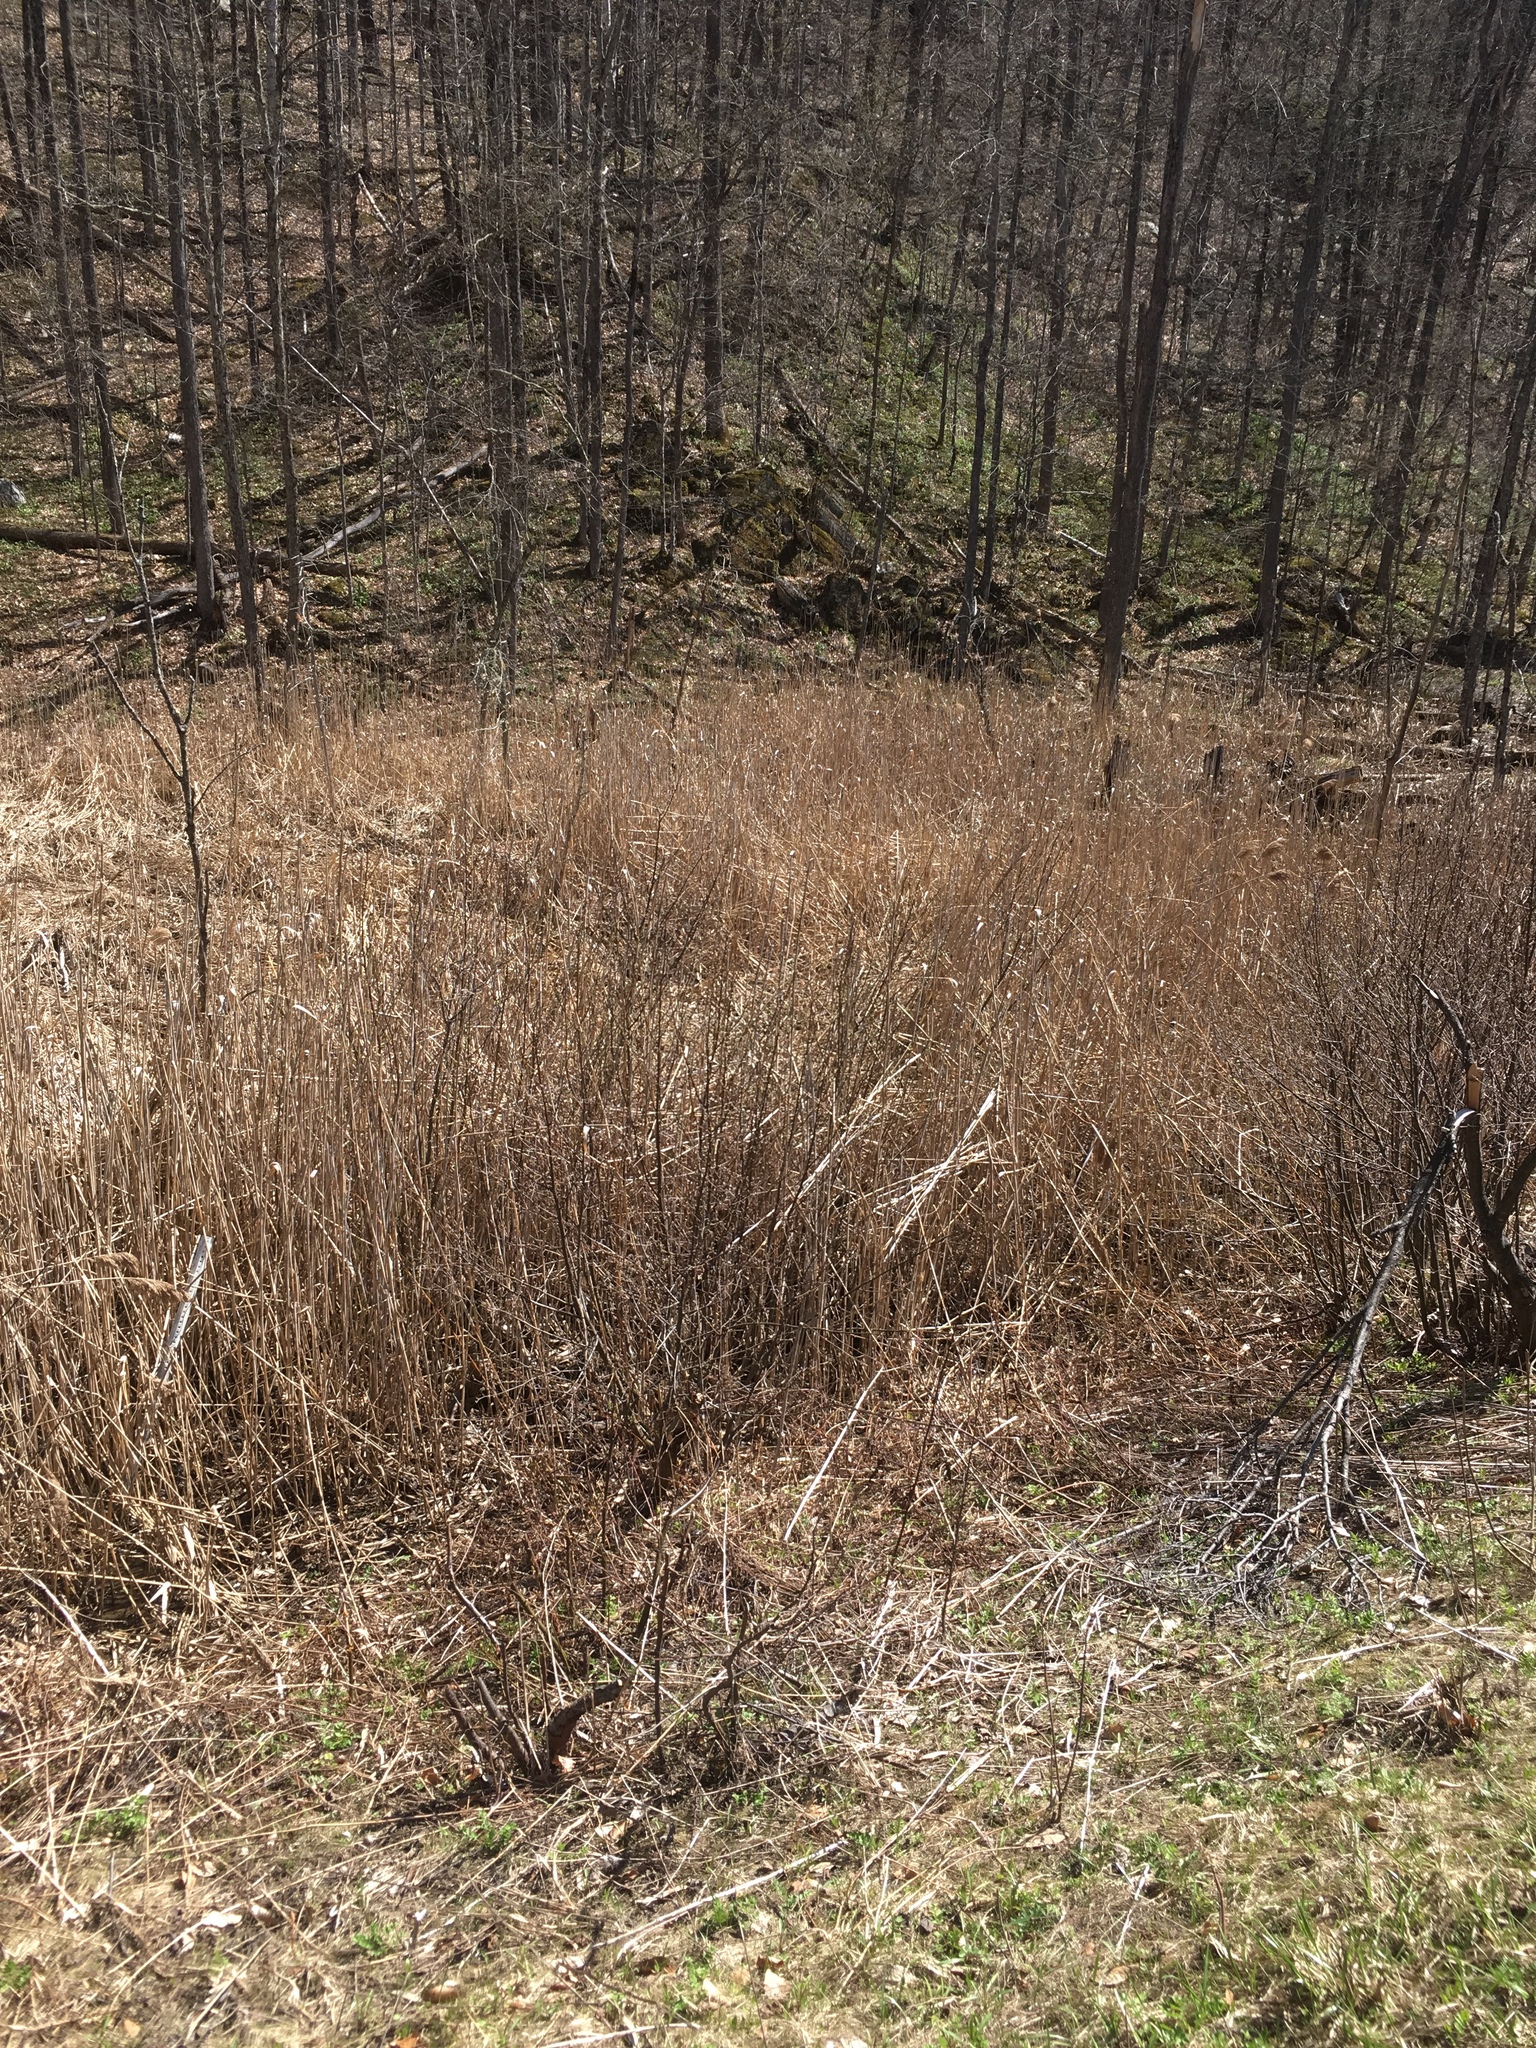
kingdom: Plantae
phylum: Tracheophyta
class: Liliopsida
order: Poales
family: Poaceae
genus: Phragmites
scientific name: Phragmites australis
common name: Common reed
